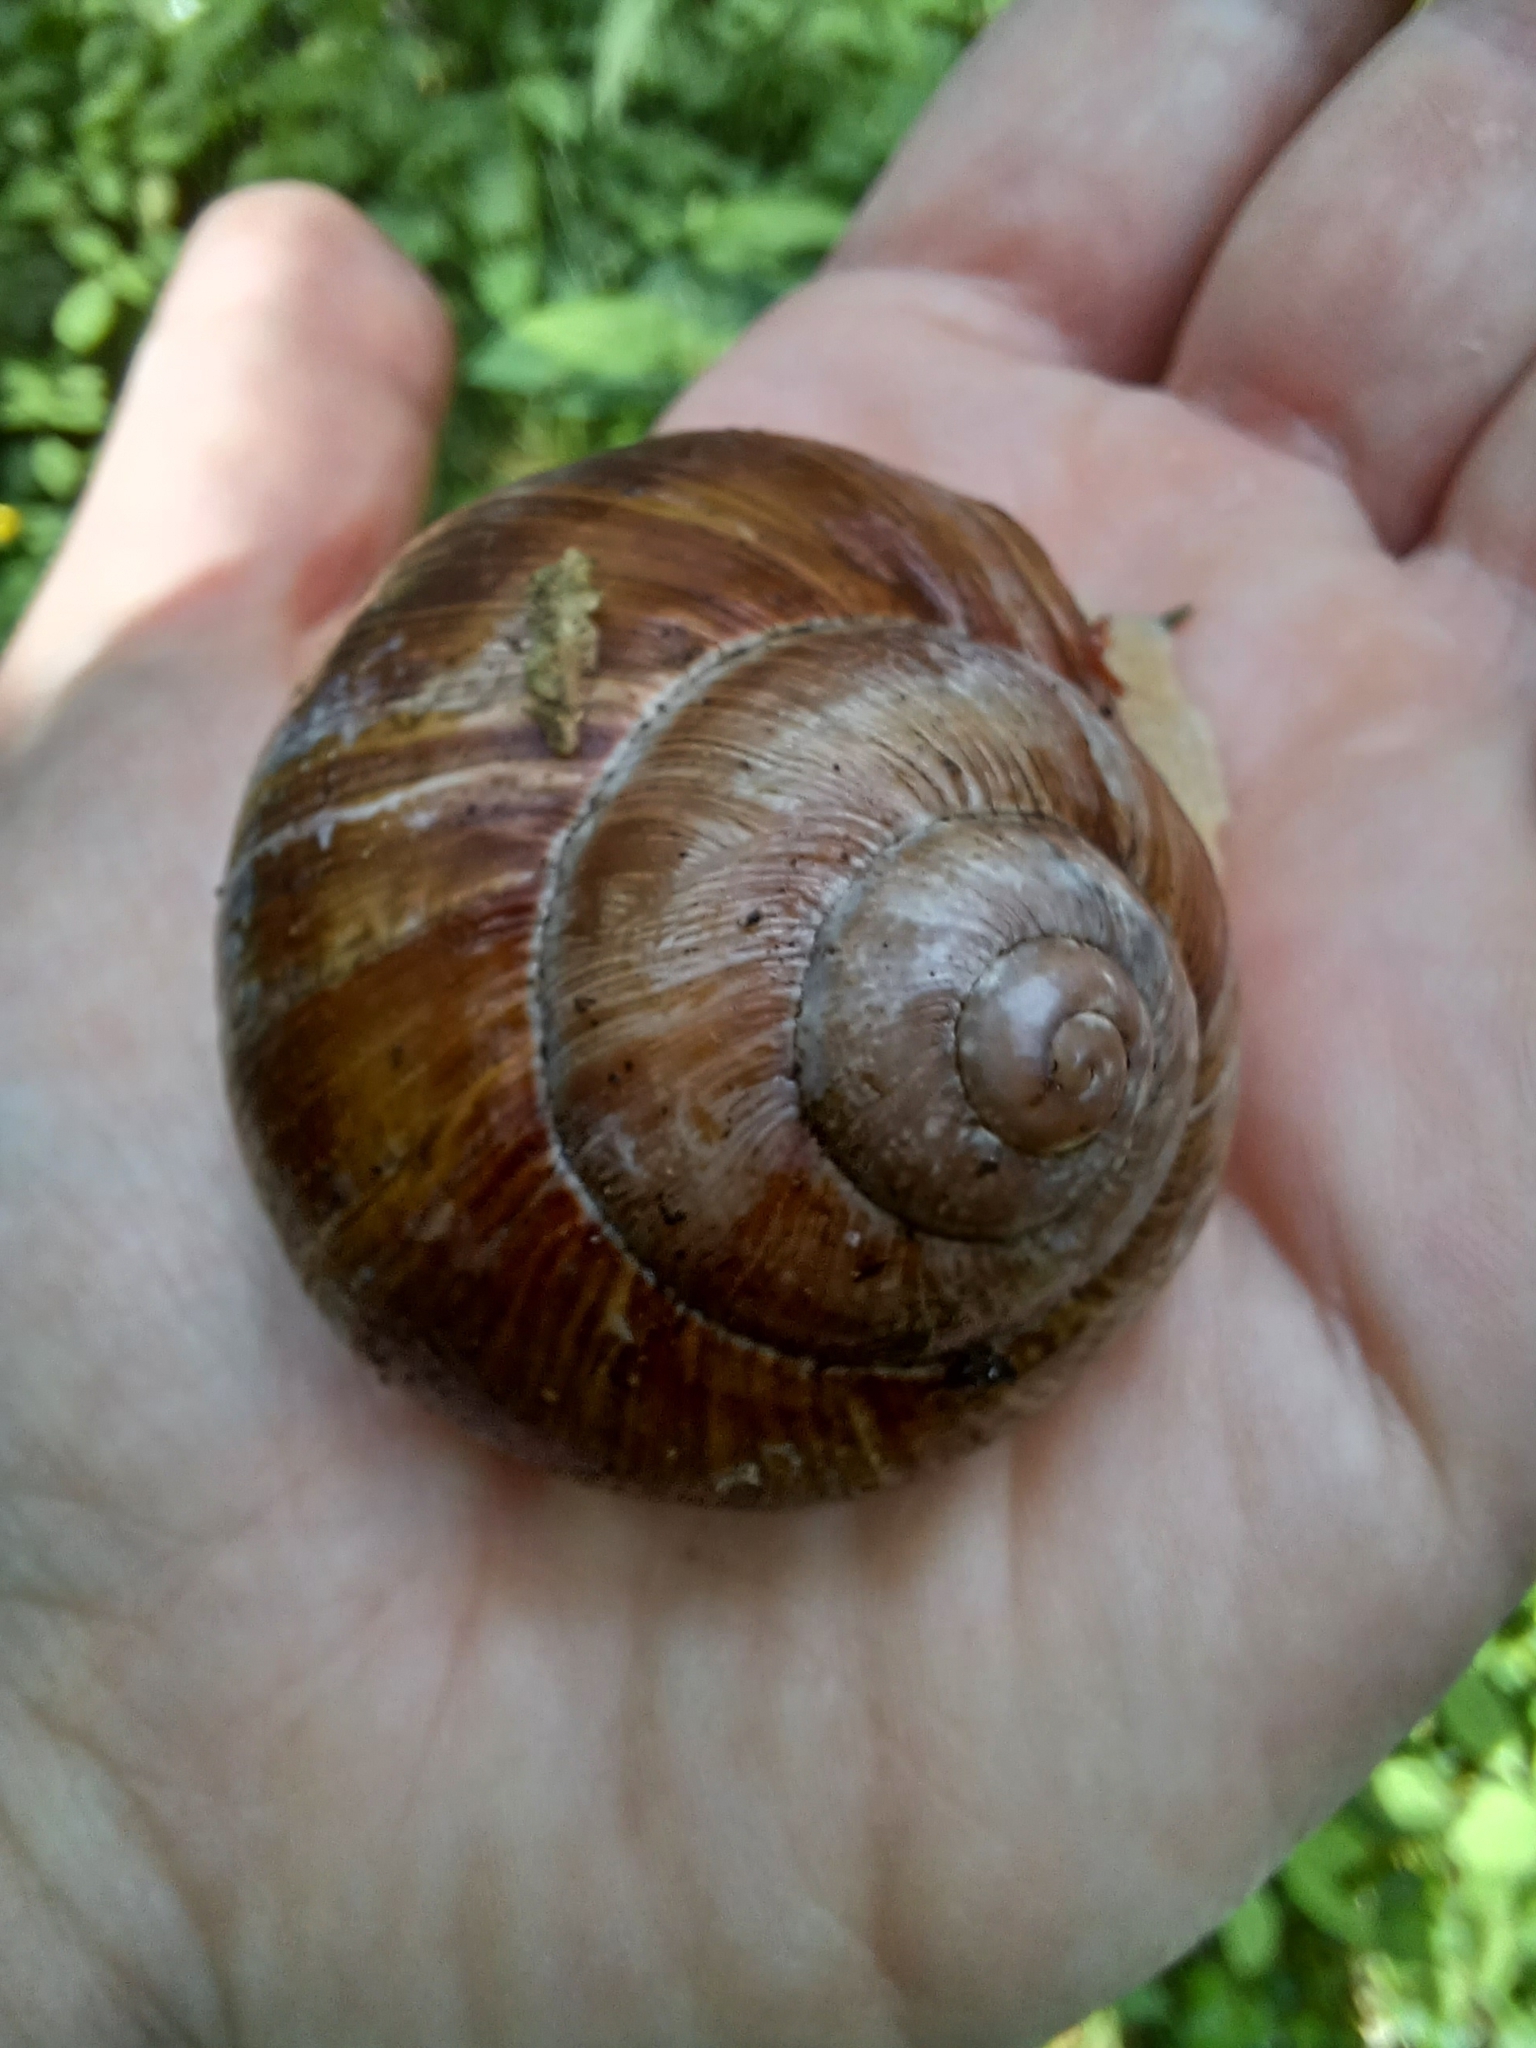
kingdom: Animalia
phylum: Mollusca
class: Gastropoda
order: Stylommatophora
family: Helicidae
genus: Helix
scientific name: Helix pomatia
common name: Roman snail
